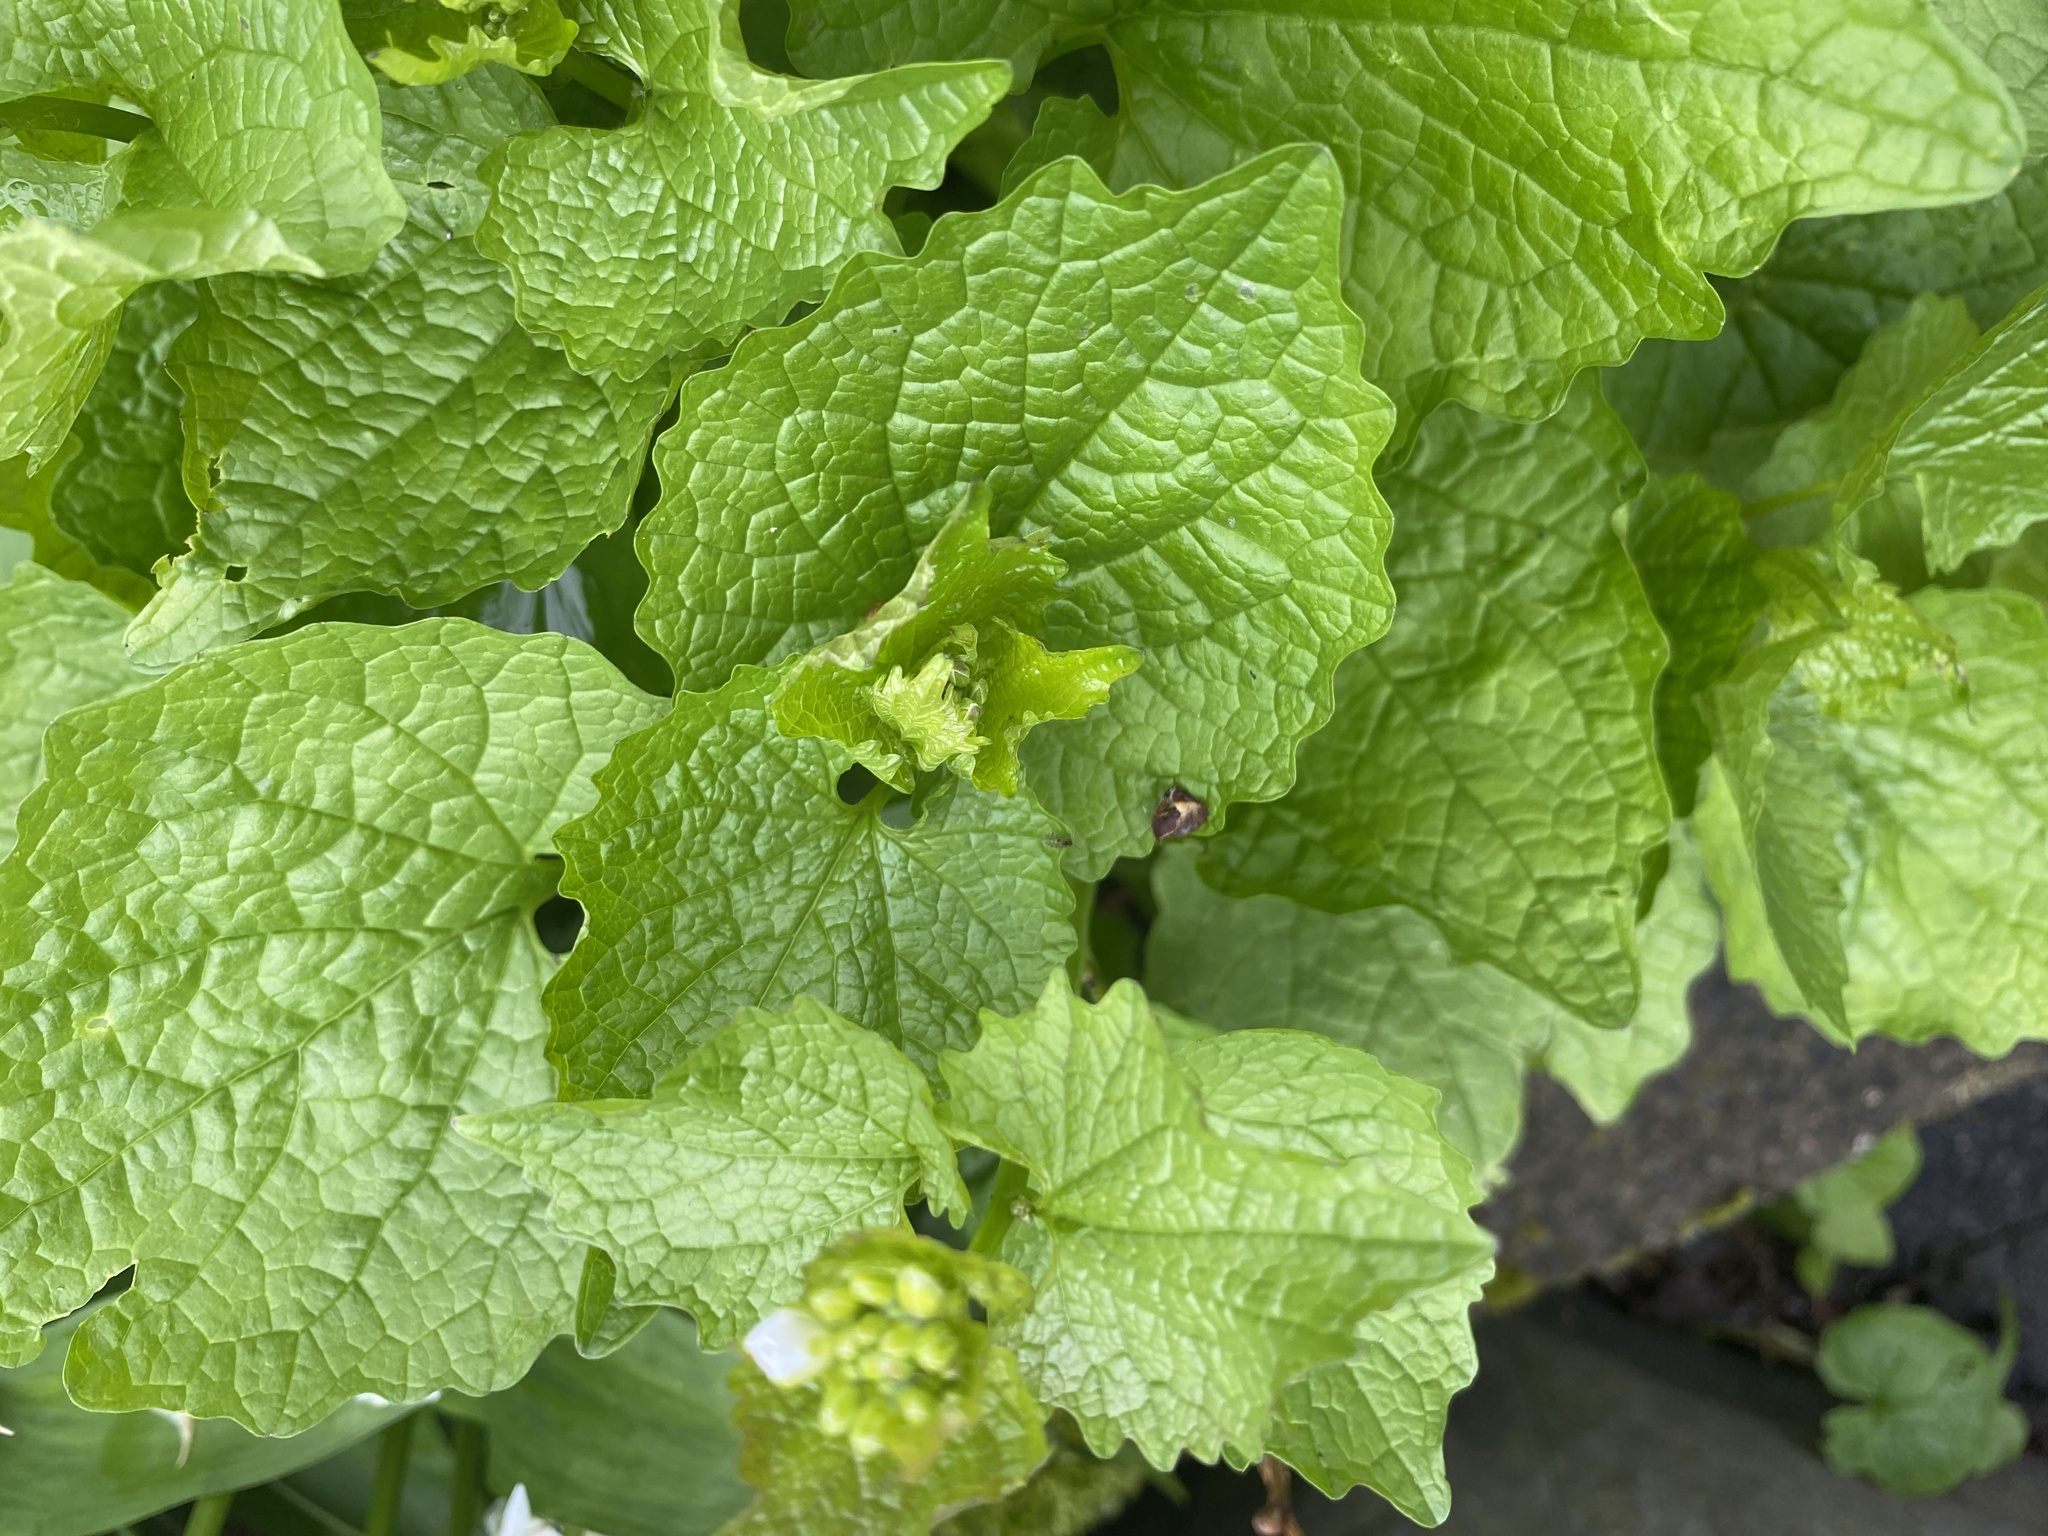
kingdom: Plantae
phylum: Tracheophyta
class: Magnoliopsida
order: Brassicales
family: Brassicaceae
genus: Alliaria
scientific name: Alliaria petiolata
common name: Garlic mustard
